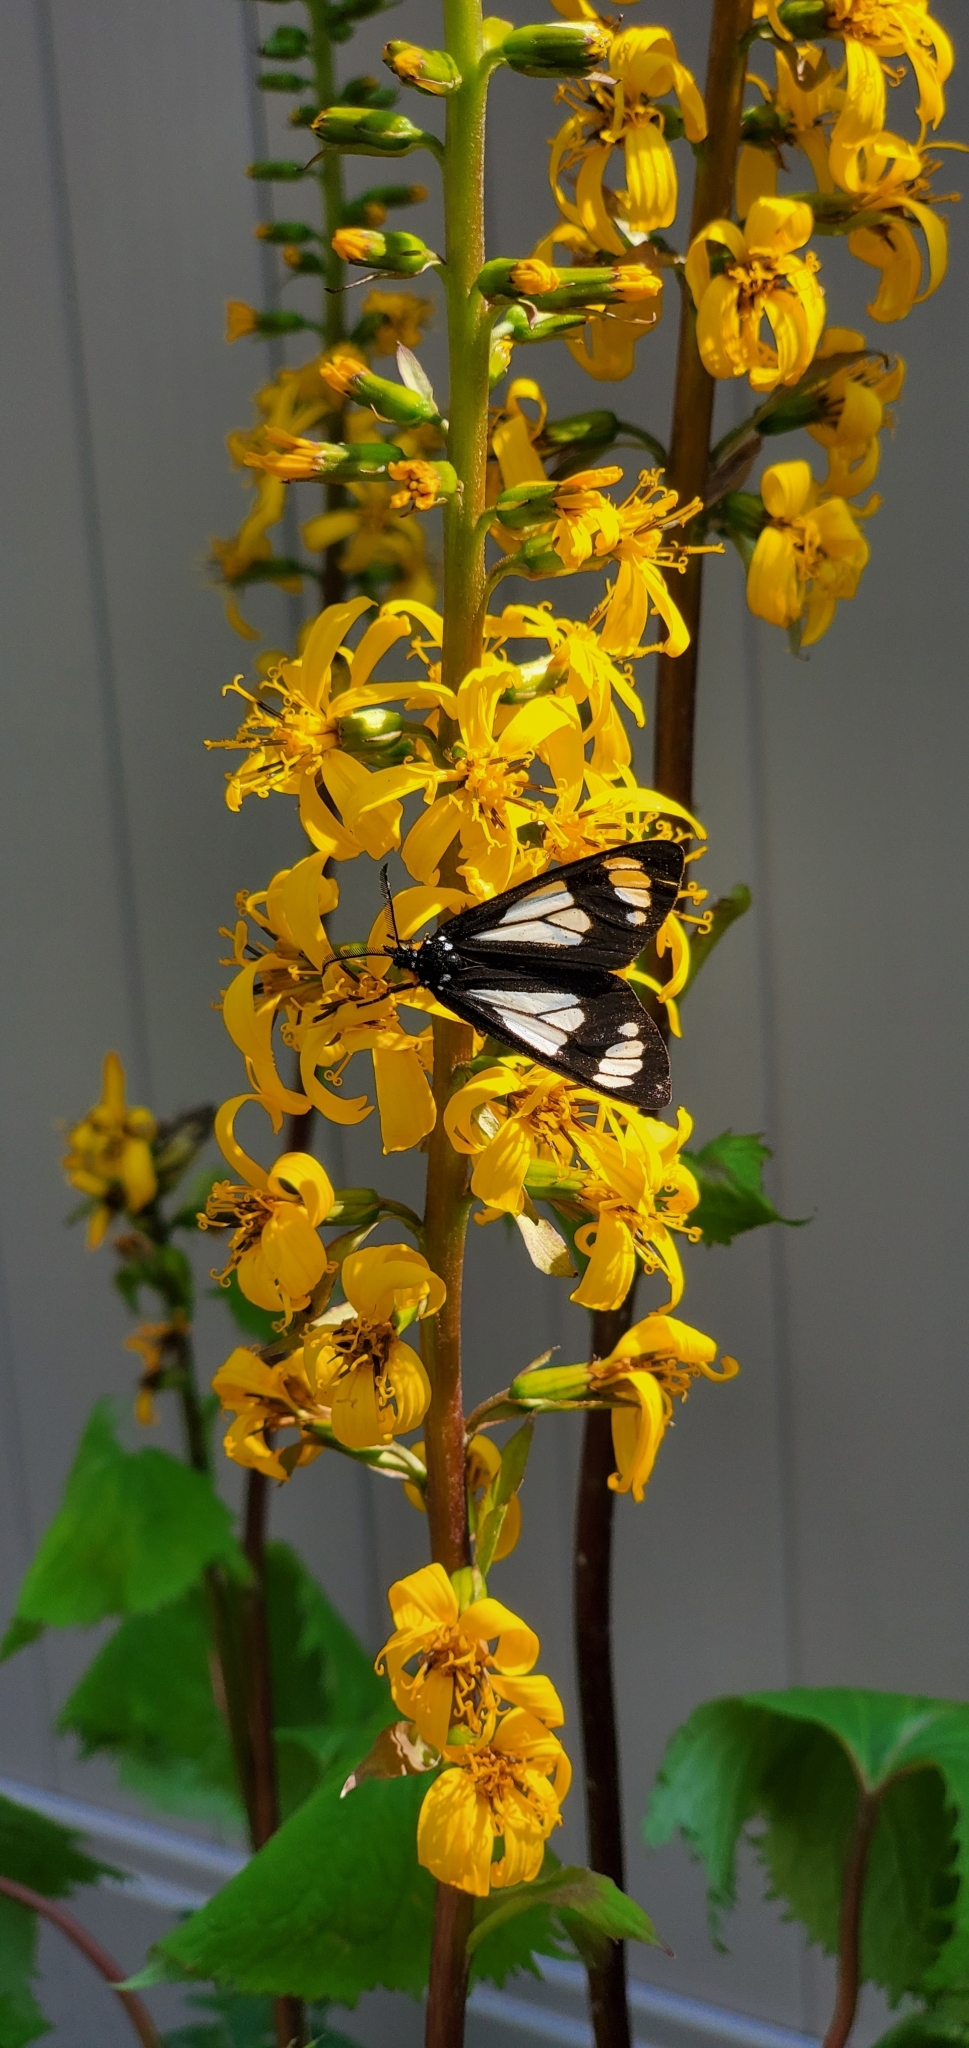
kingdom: Animalia
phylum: Arthropoda
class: Insecta
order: Lepidoptera
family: Erebidae
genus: Gnophaela
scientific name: Gnophaela vermiculata
